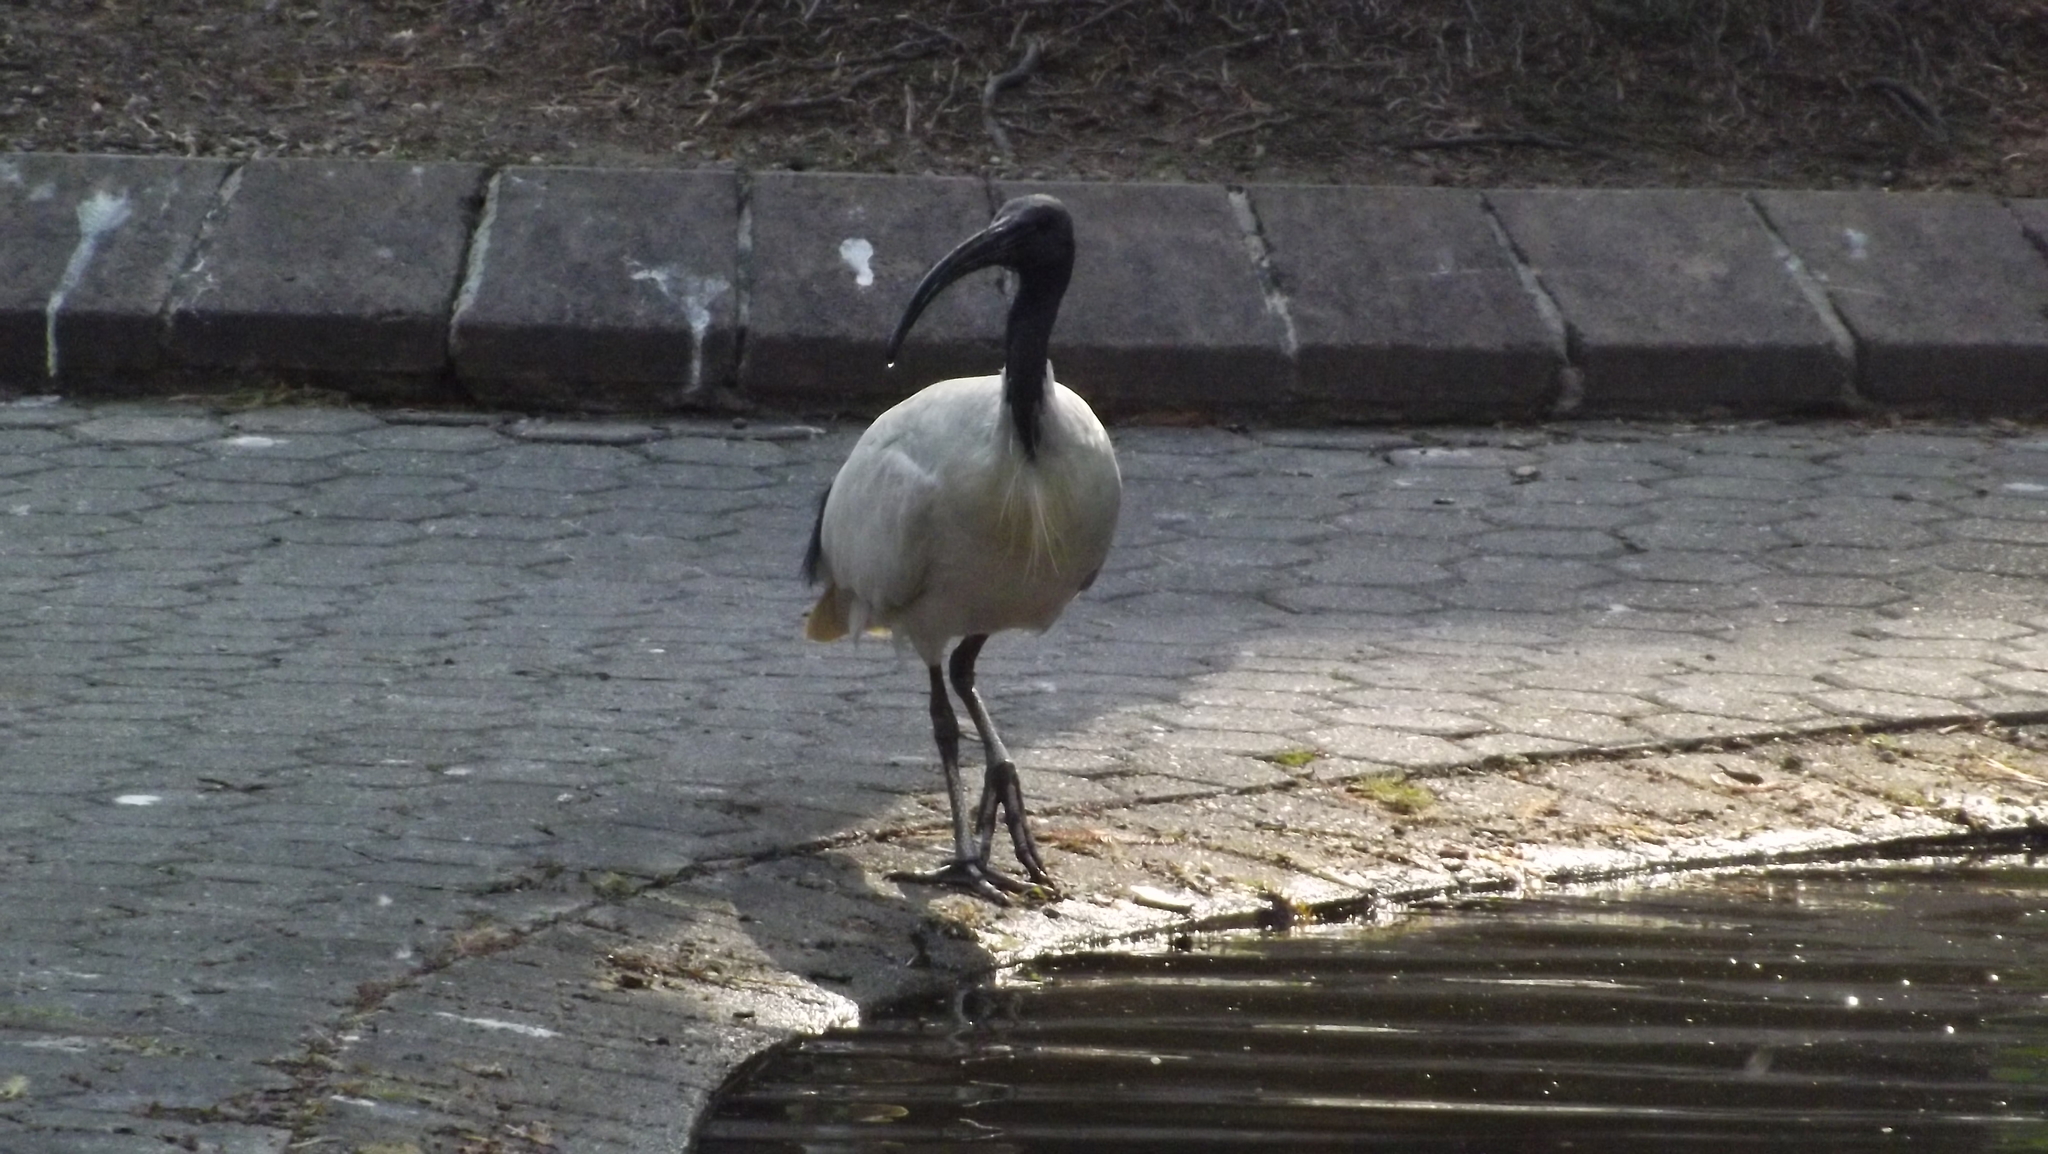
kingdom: Animalia
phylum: Chordata
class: Aves
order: Pelecaniformes
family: Threskiornithidae
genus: Threskiornis
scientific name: Threskiornis molucca
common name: Australian white ibis
